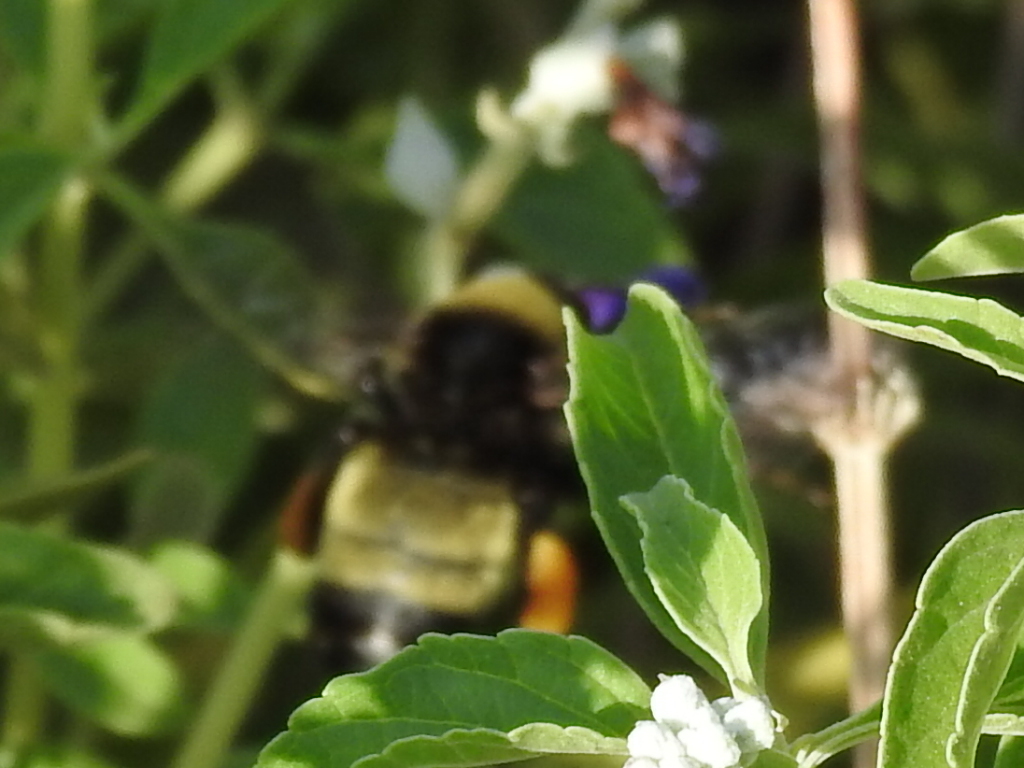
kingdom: Animalia
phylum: Arthropoda
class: Insecta
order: Hymenoptera
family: Apidae
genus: Bombus
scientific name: Bombus pensylvanicus
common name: Bumble bee
